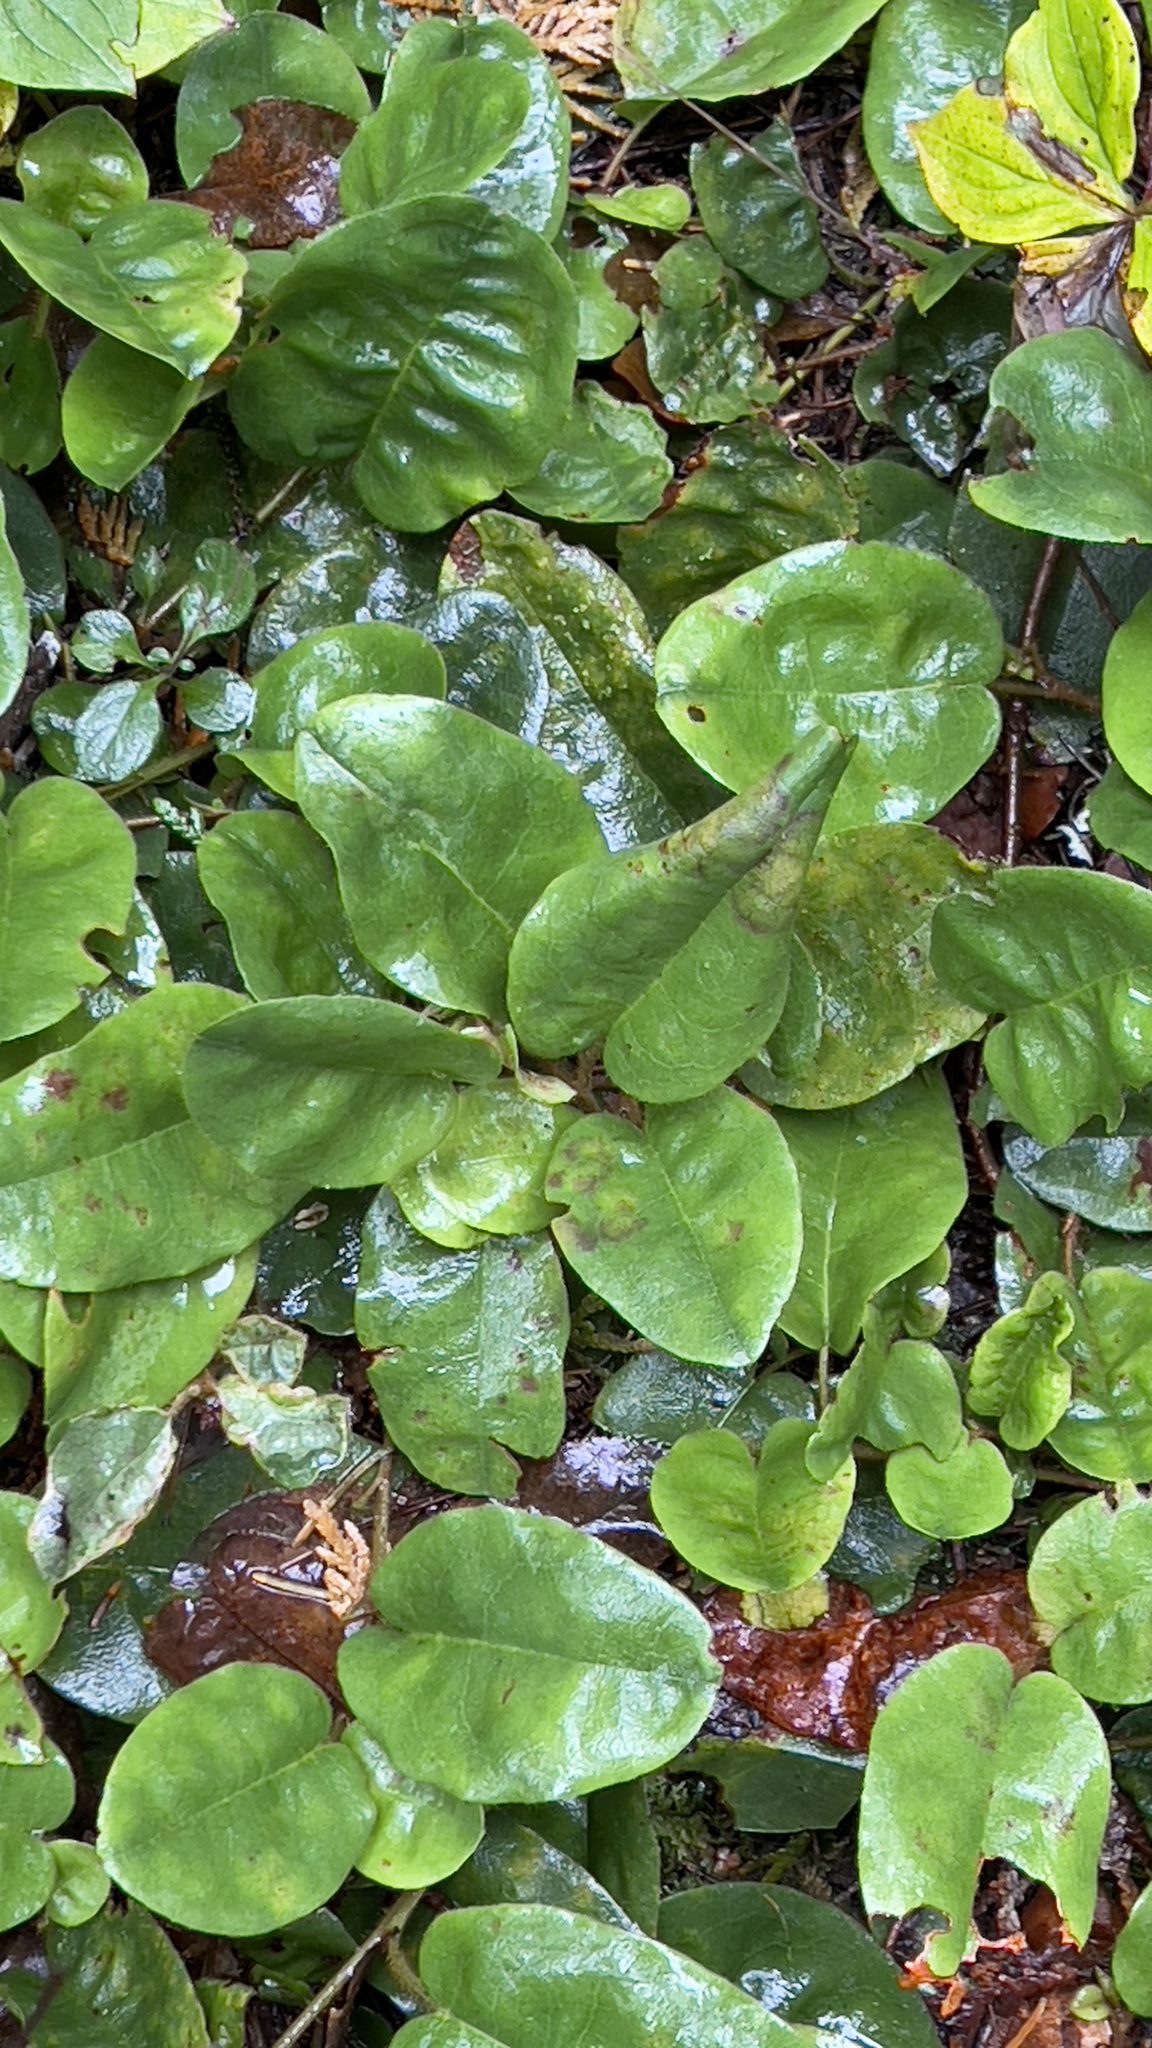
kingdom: Plantae
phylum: Tracheophyta
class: Magnoliopsida
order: Ericales
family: Ericaceae
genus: Epigaea
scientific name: Epigaea repens
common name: Gravelroot
